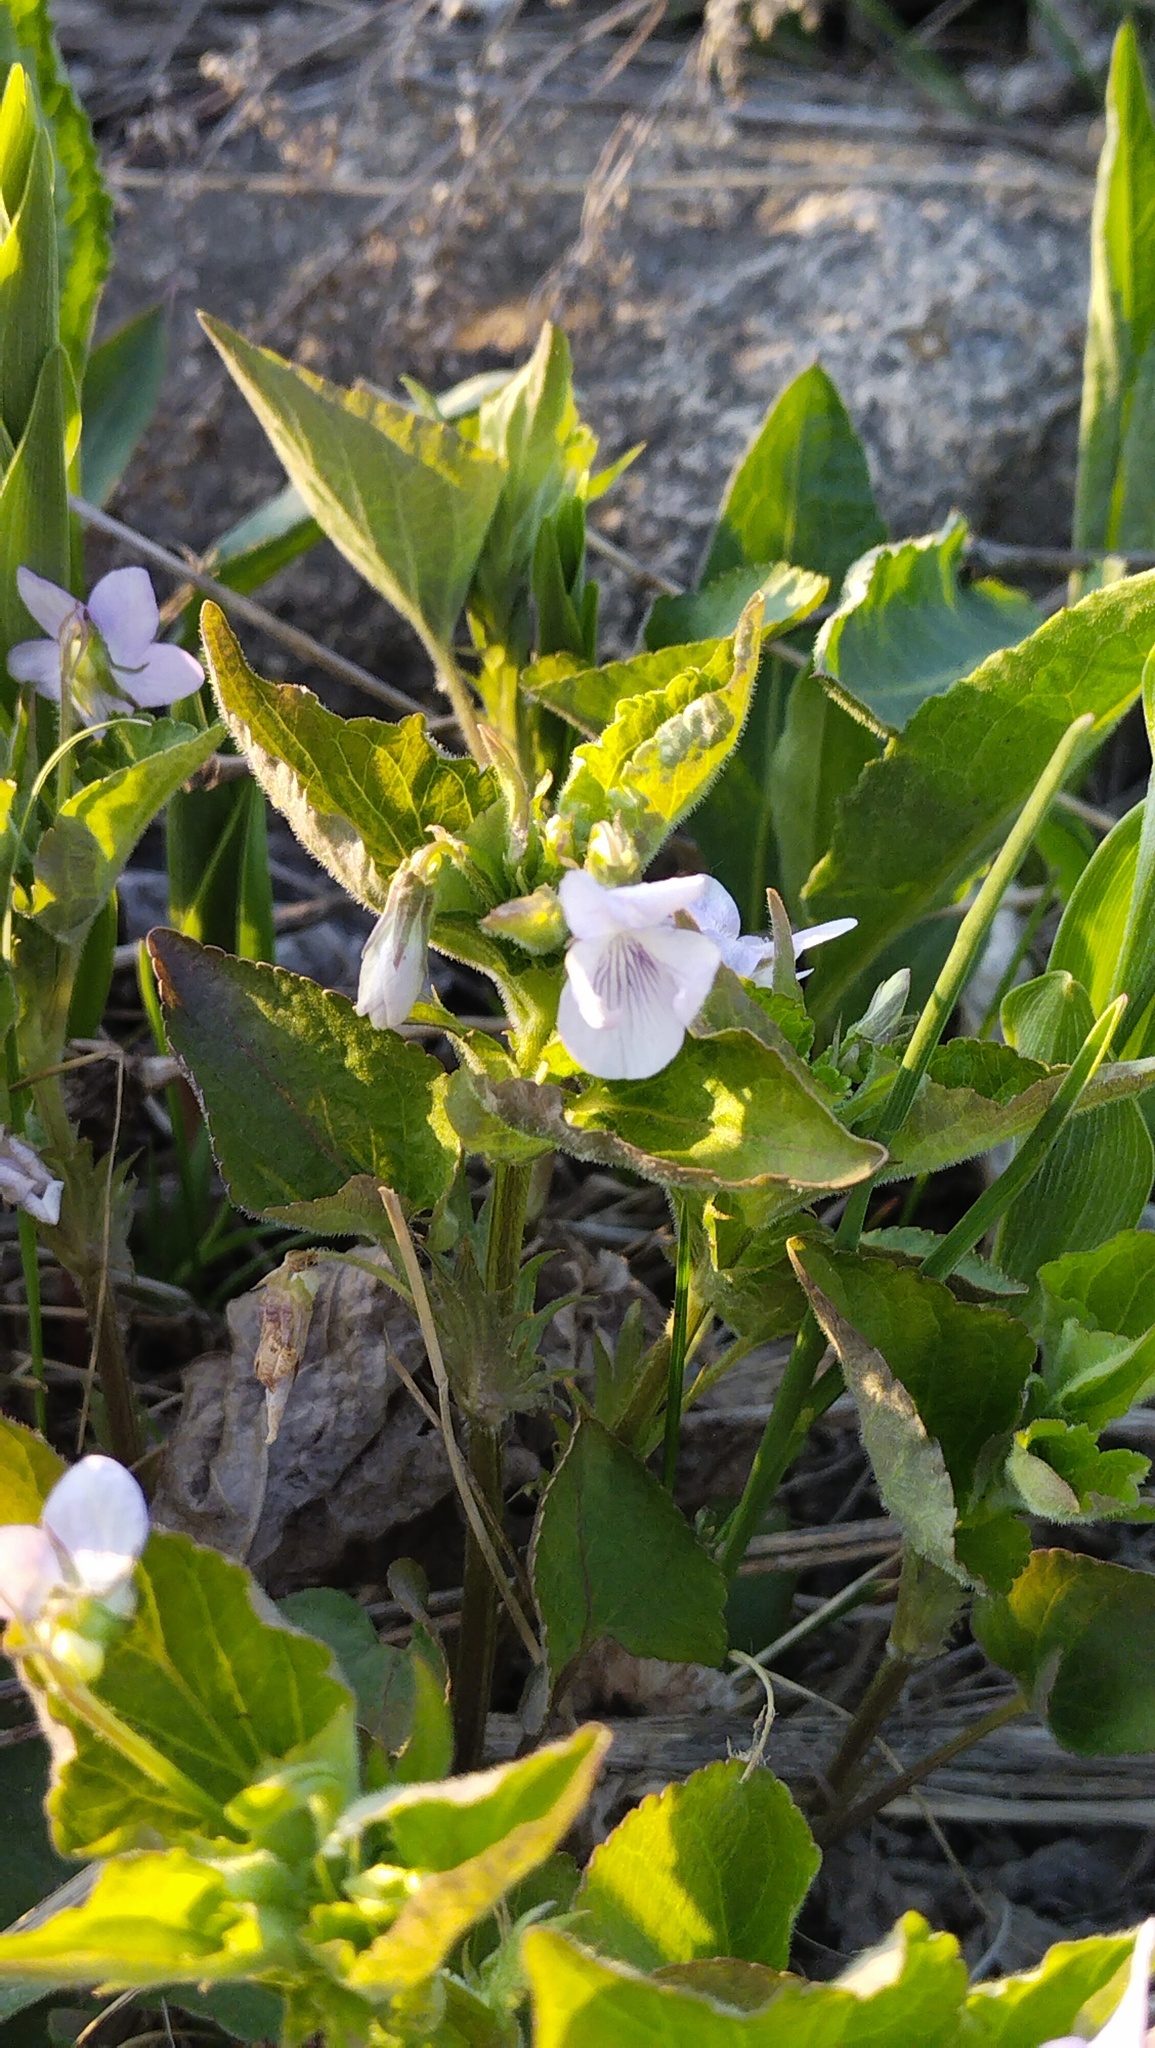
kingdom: Plantae
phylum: Tracheophyta
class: Magnoliopsida
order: Malpighiales
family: Violaceae
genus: Viola
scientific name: Viola acuminata
